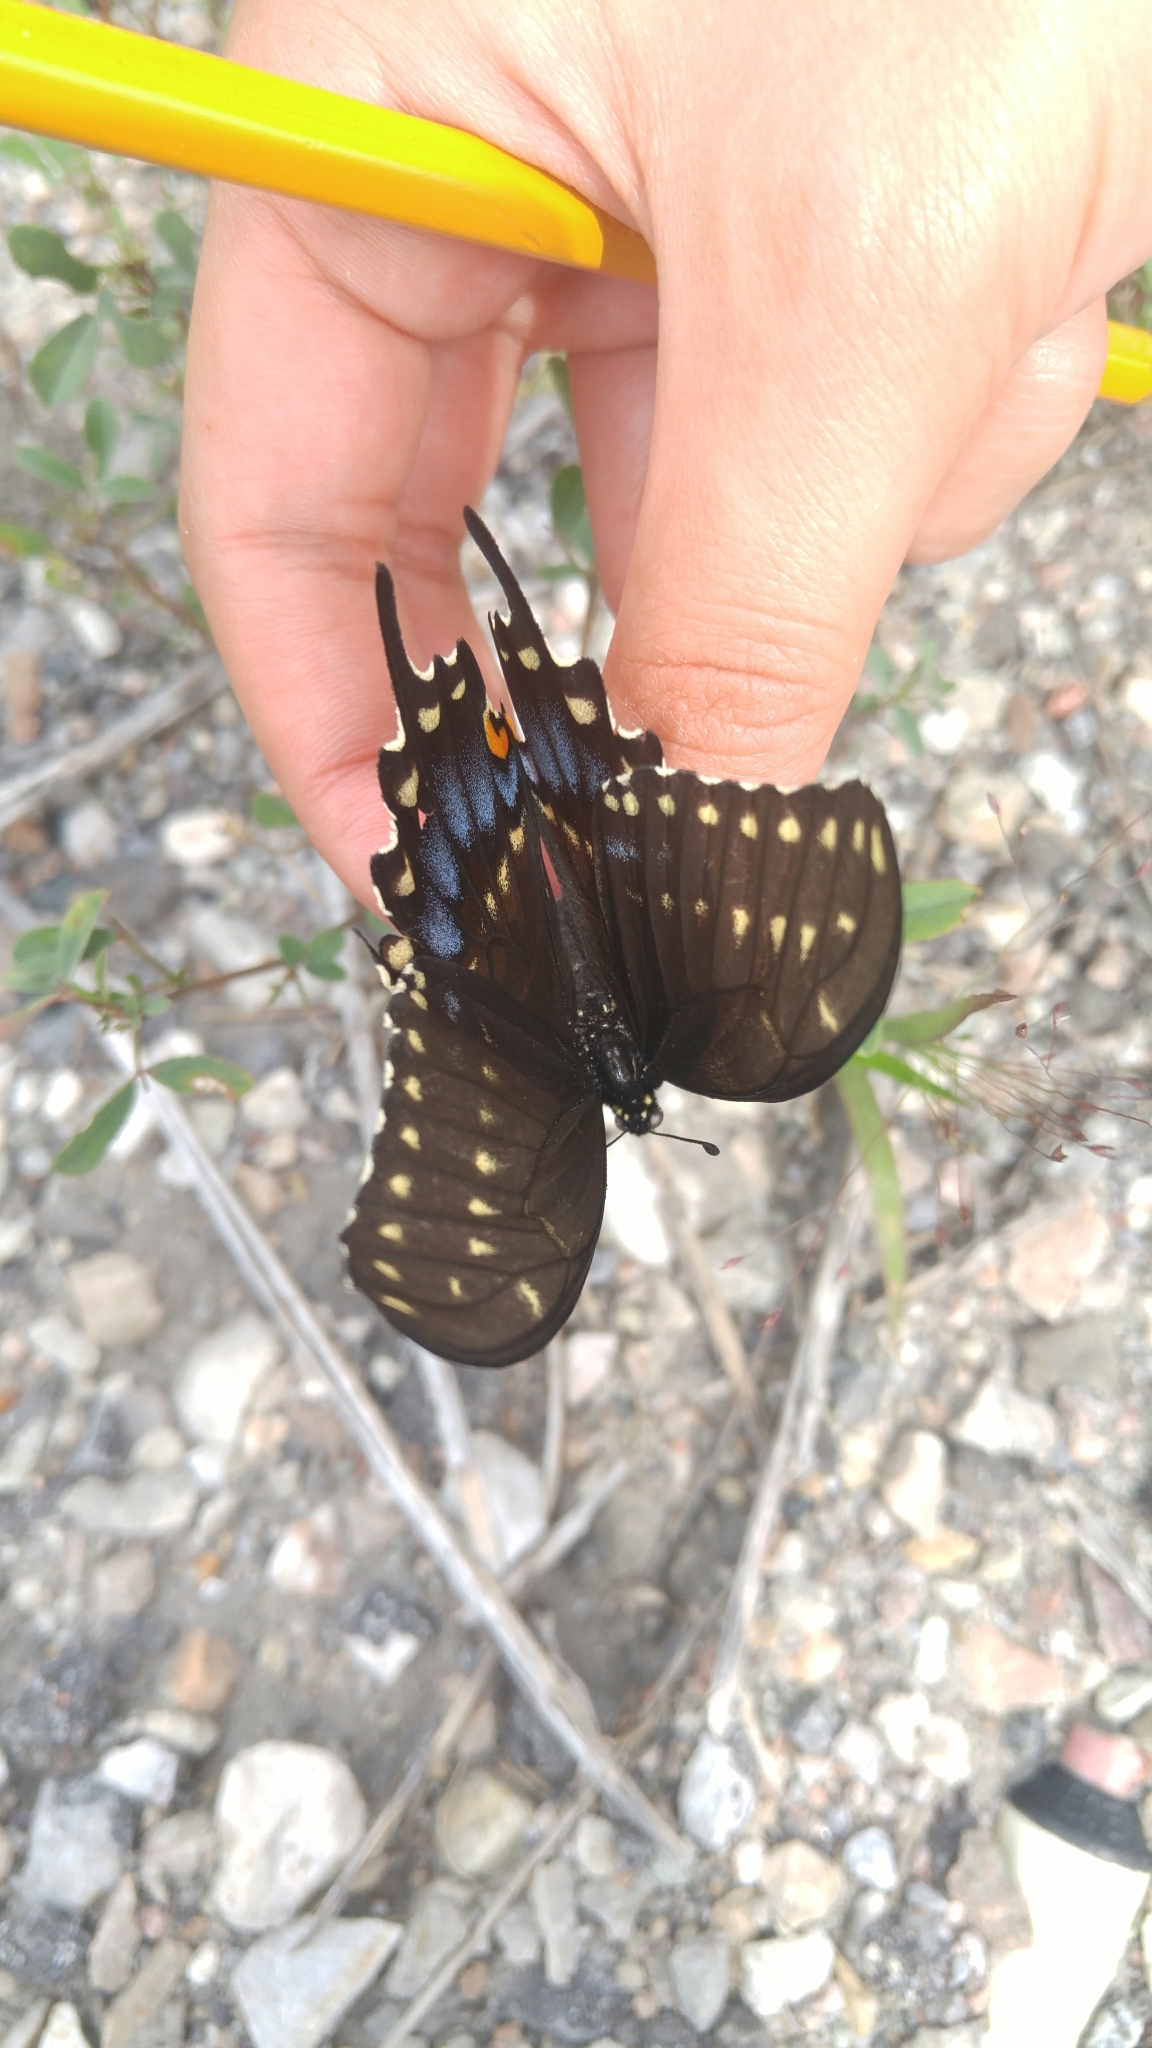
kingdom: Animalia
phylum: Arthropoda
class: Insecta
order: Lepidoptera
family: Papilionidae
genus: Papilio
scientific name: Papilio polyxenes
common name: Black swallowtail
